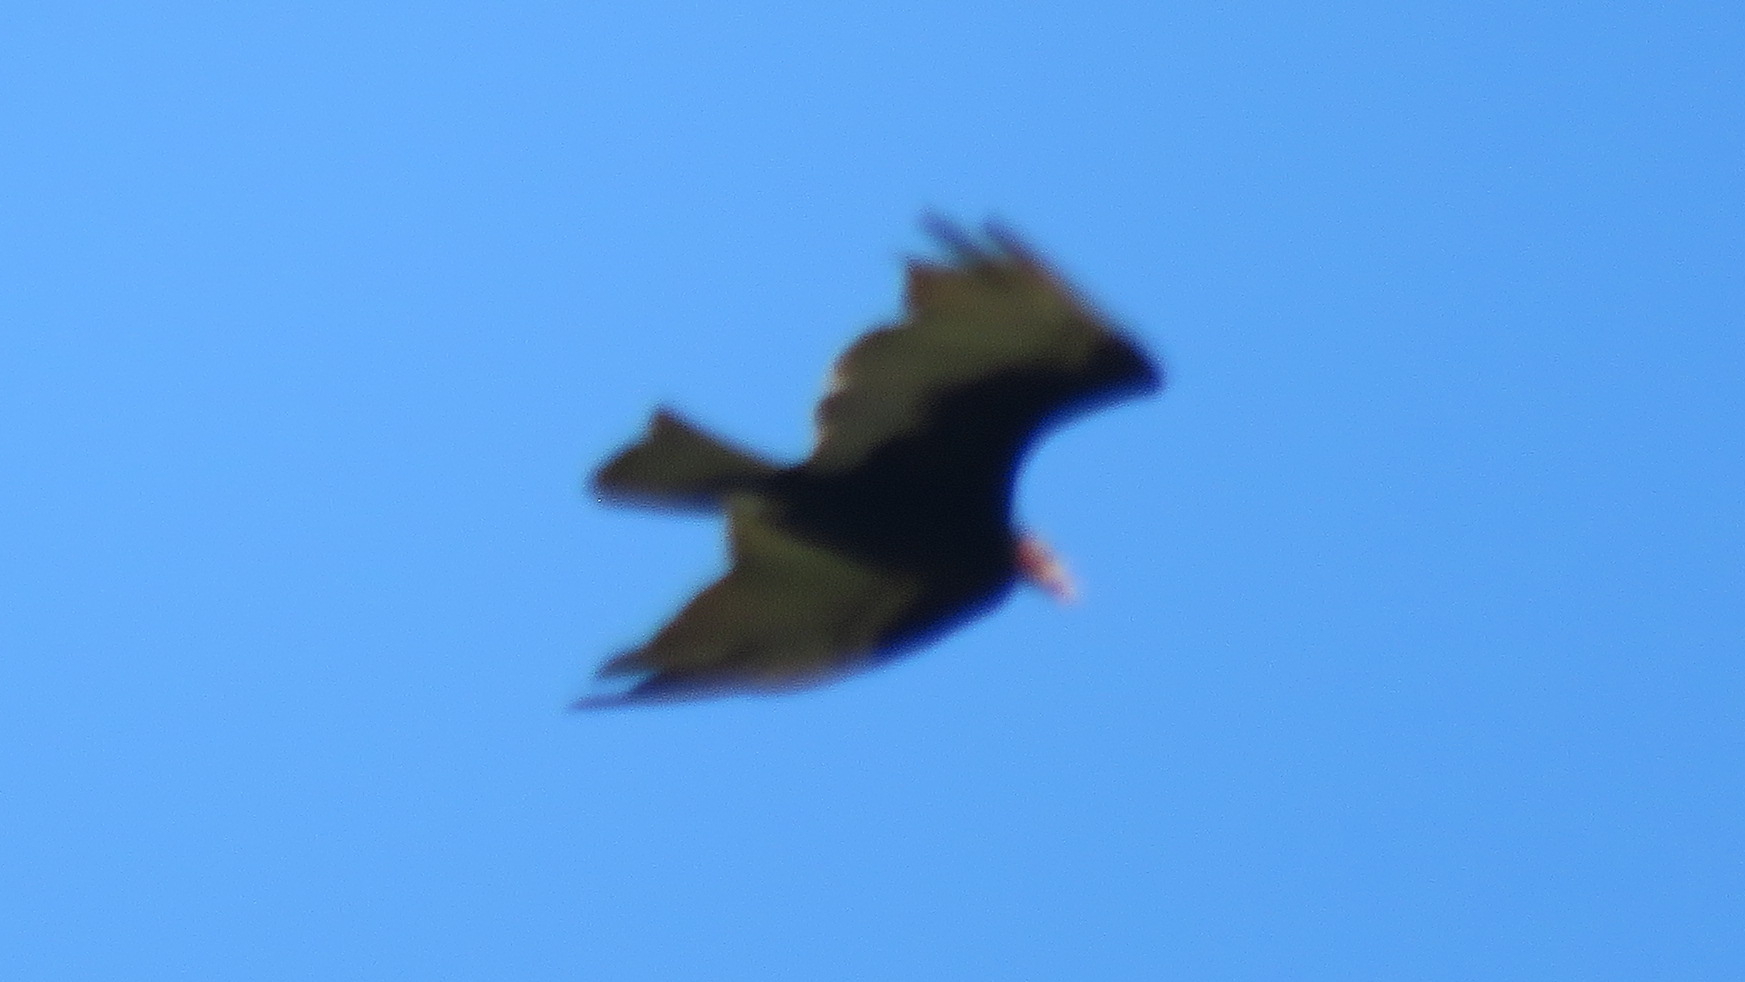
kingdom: Animalia
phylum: Chordata
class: Aves
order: Accipitriformes
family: Cathartidae
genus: Cathartes
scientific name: Cathartes burrovianus
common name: Lesser yellow-headed vulture
